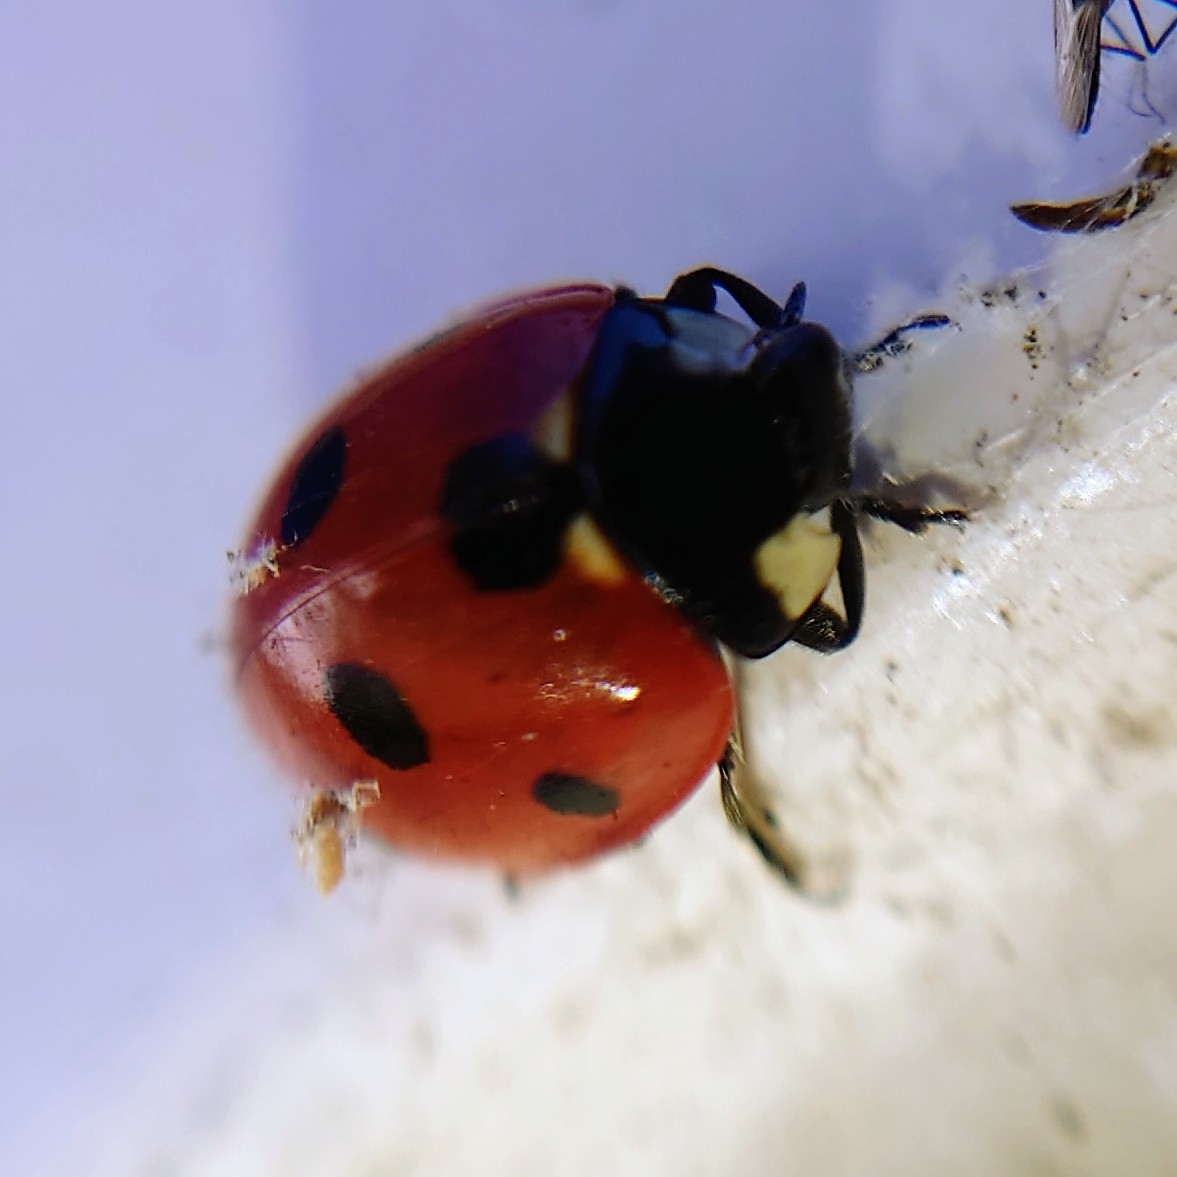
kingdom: Animalia
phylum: Arthropoda
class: Insecta
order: Coleoptera
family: Coccinellidae
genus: Coccinella
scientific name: Coccinella septempunctata
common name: Sevenspotted lady beetle
